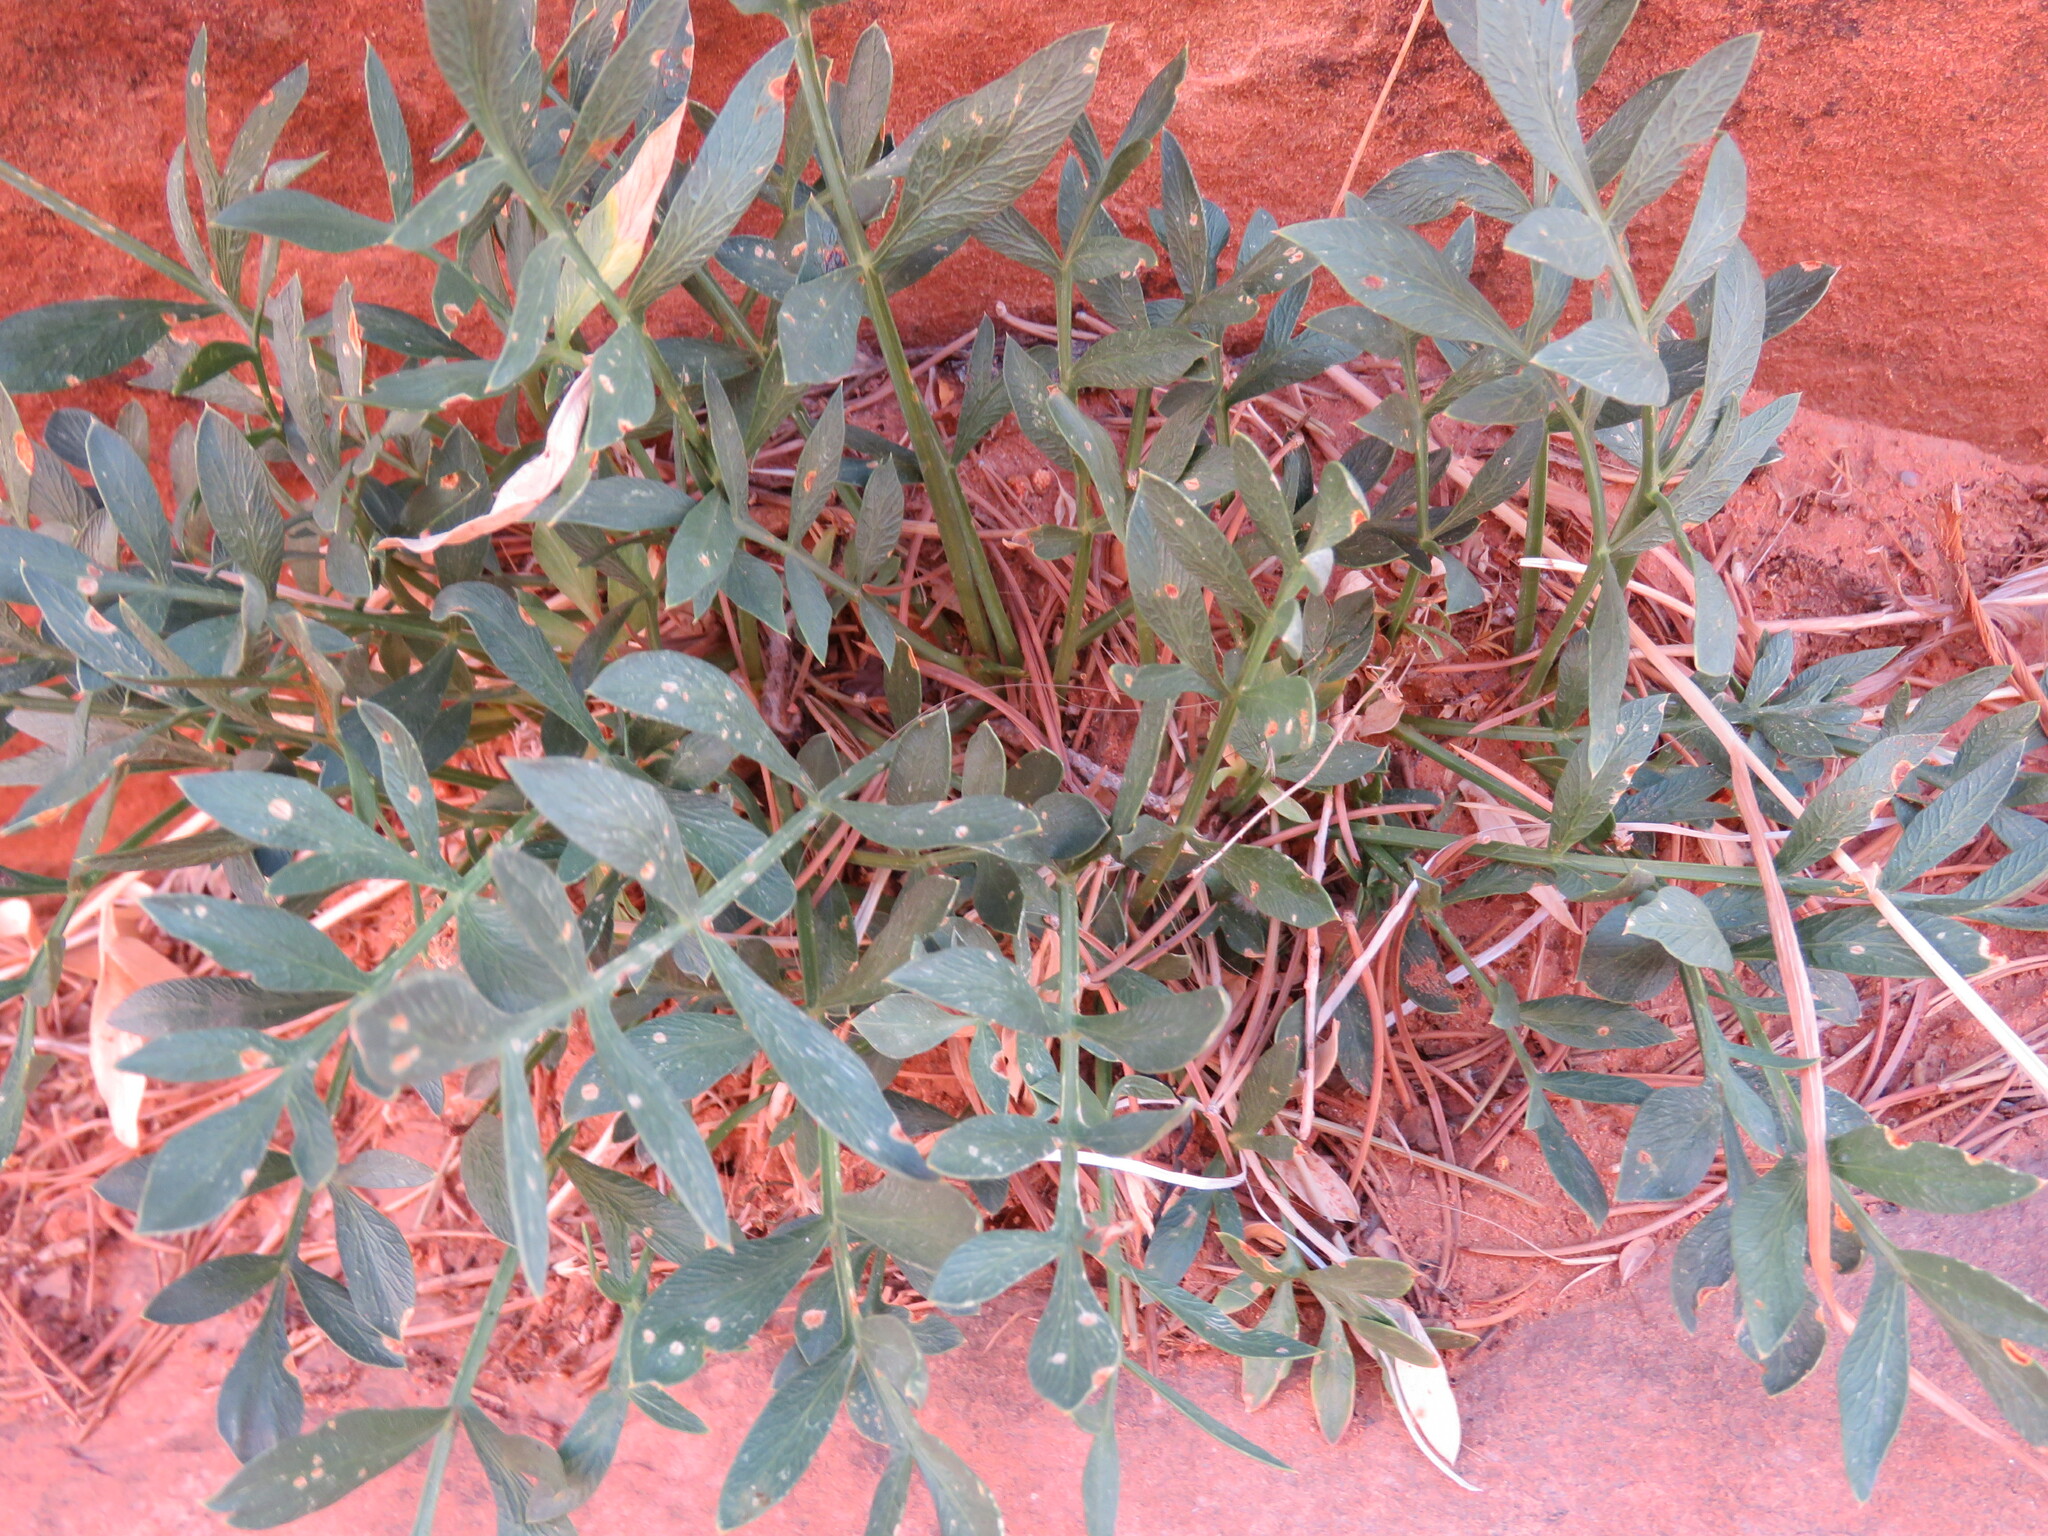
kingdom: Plantae
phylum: Tracheophyta
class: Magnoliopsida
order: Brassicales
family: Brassicaceae
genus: Stanleya
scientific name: Stanleya pinnata
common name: Prince's-plume
